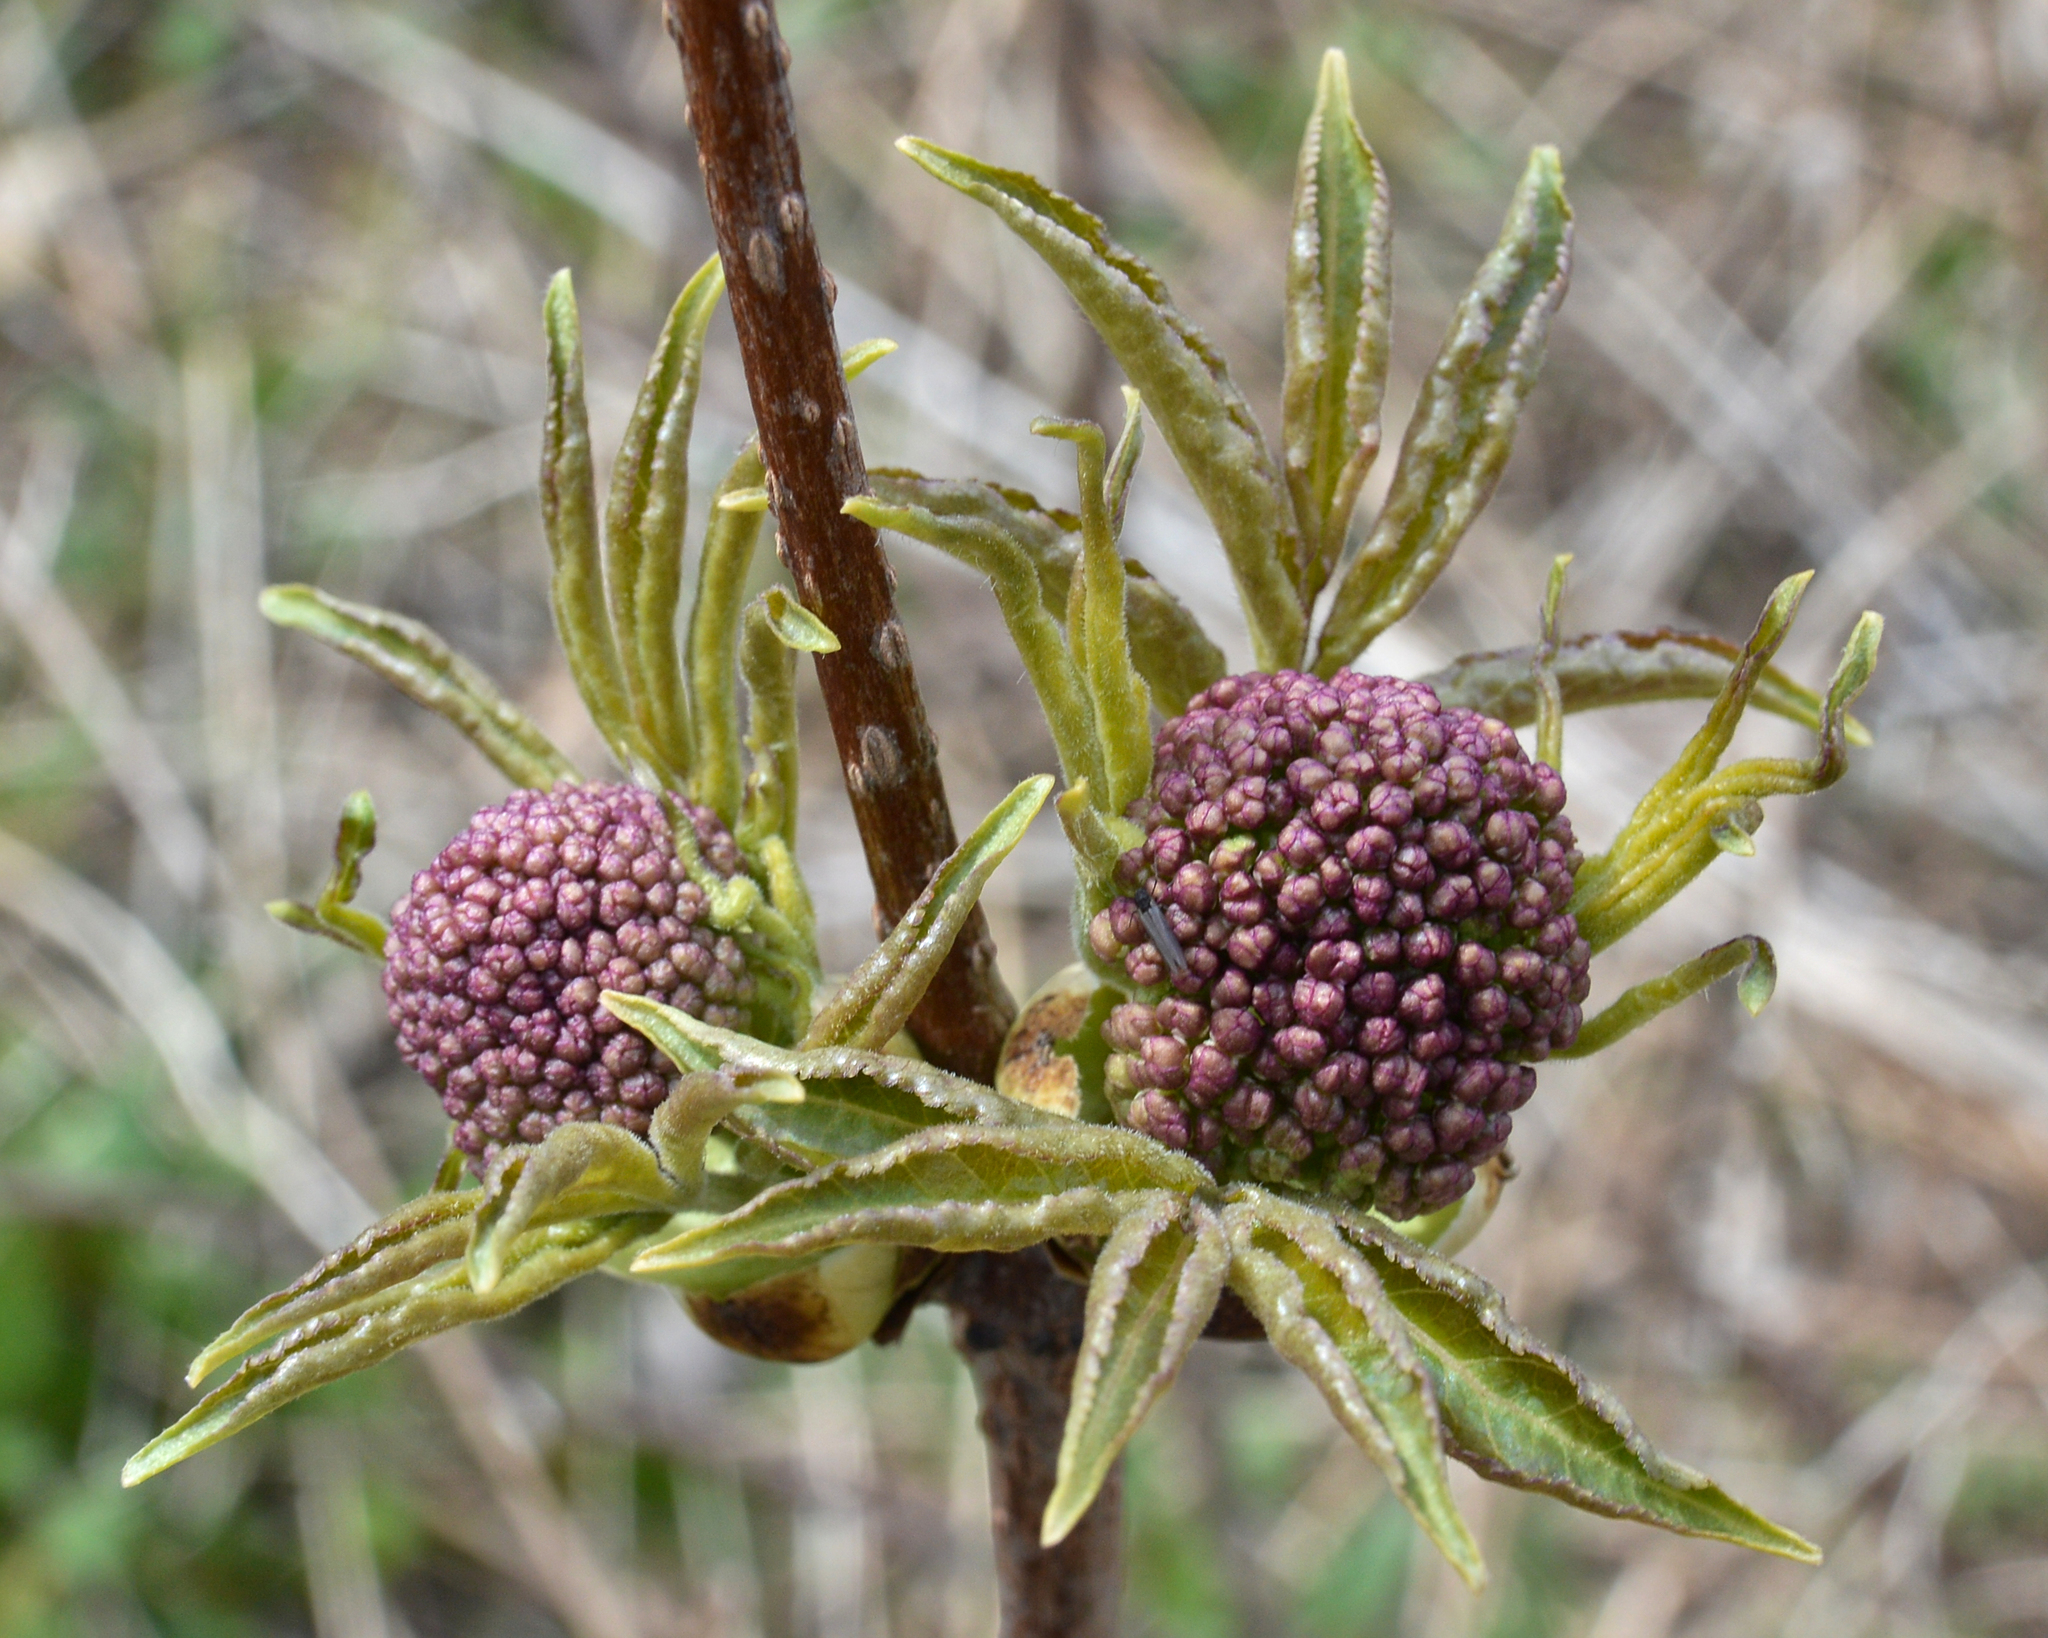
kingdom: Plantae
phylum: Tracheophyta
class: Magnoliopsida
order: Dipsacales
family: Viburnaceae
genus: Sambucus
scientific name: Sambucus racemosa
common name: Red-berried elder
